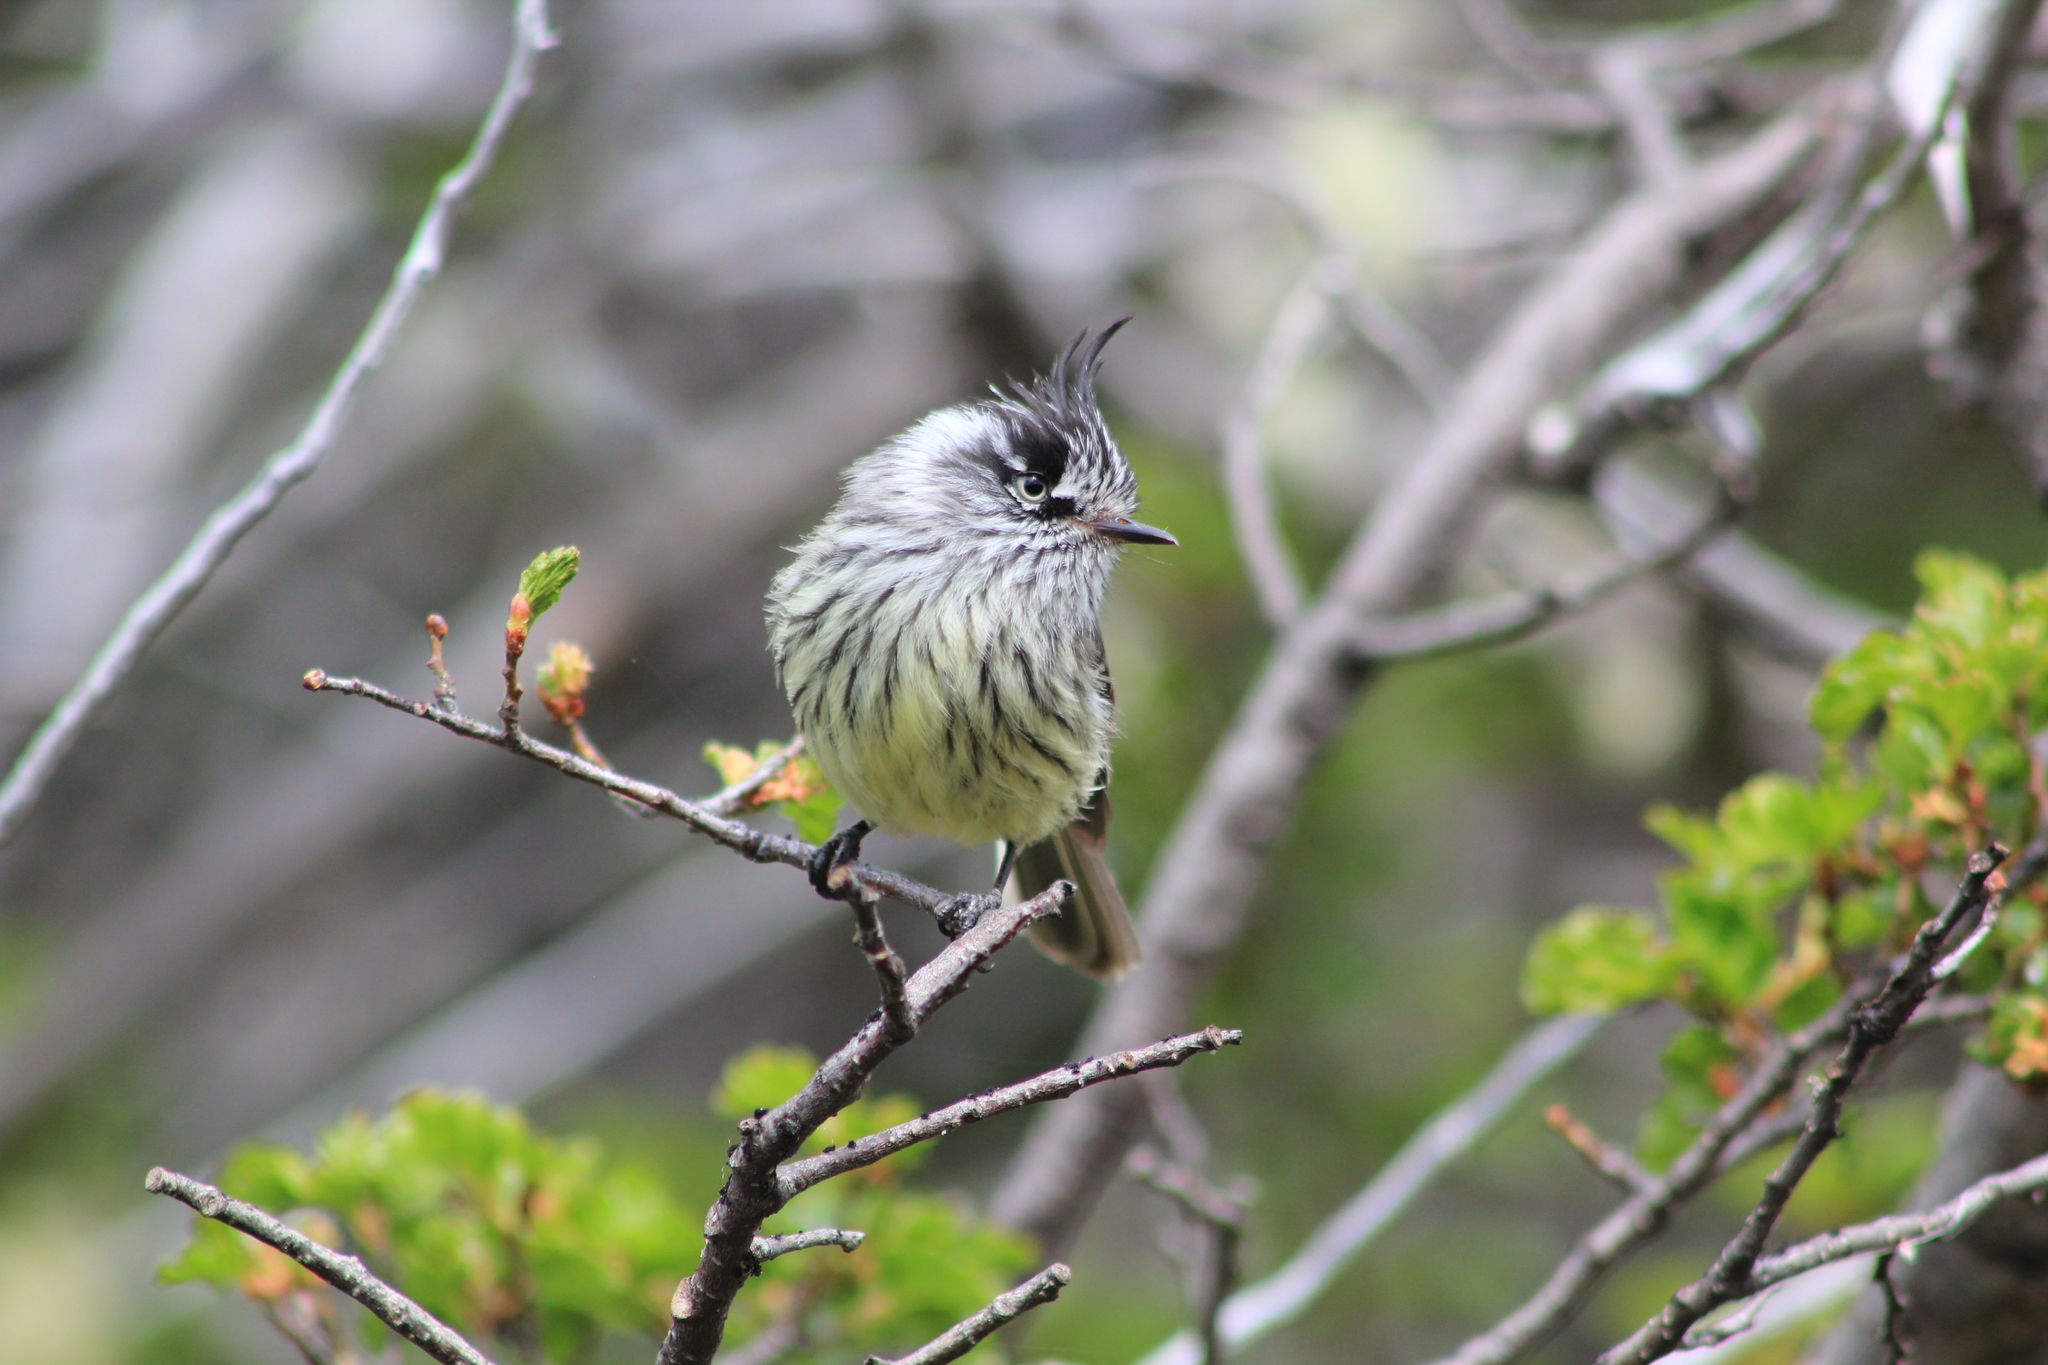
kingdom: Animalia
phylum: Chordata
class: Aves
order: Passeriformes
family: Tyrannidae
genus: Anairetes
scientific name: Anairetes parulus
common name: Tufted tit-tyrant
